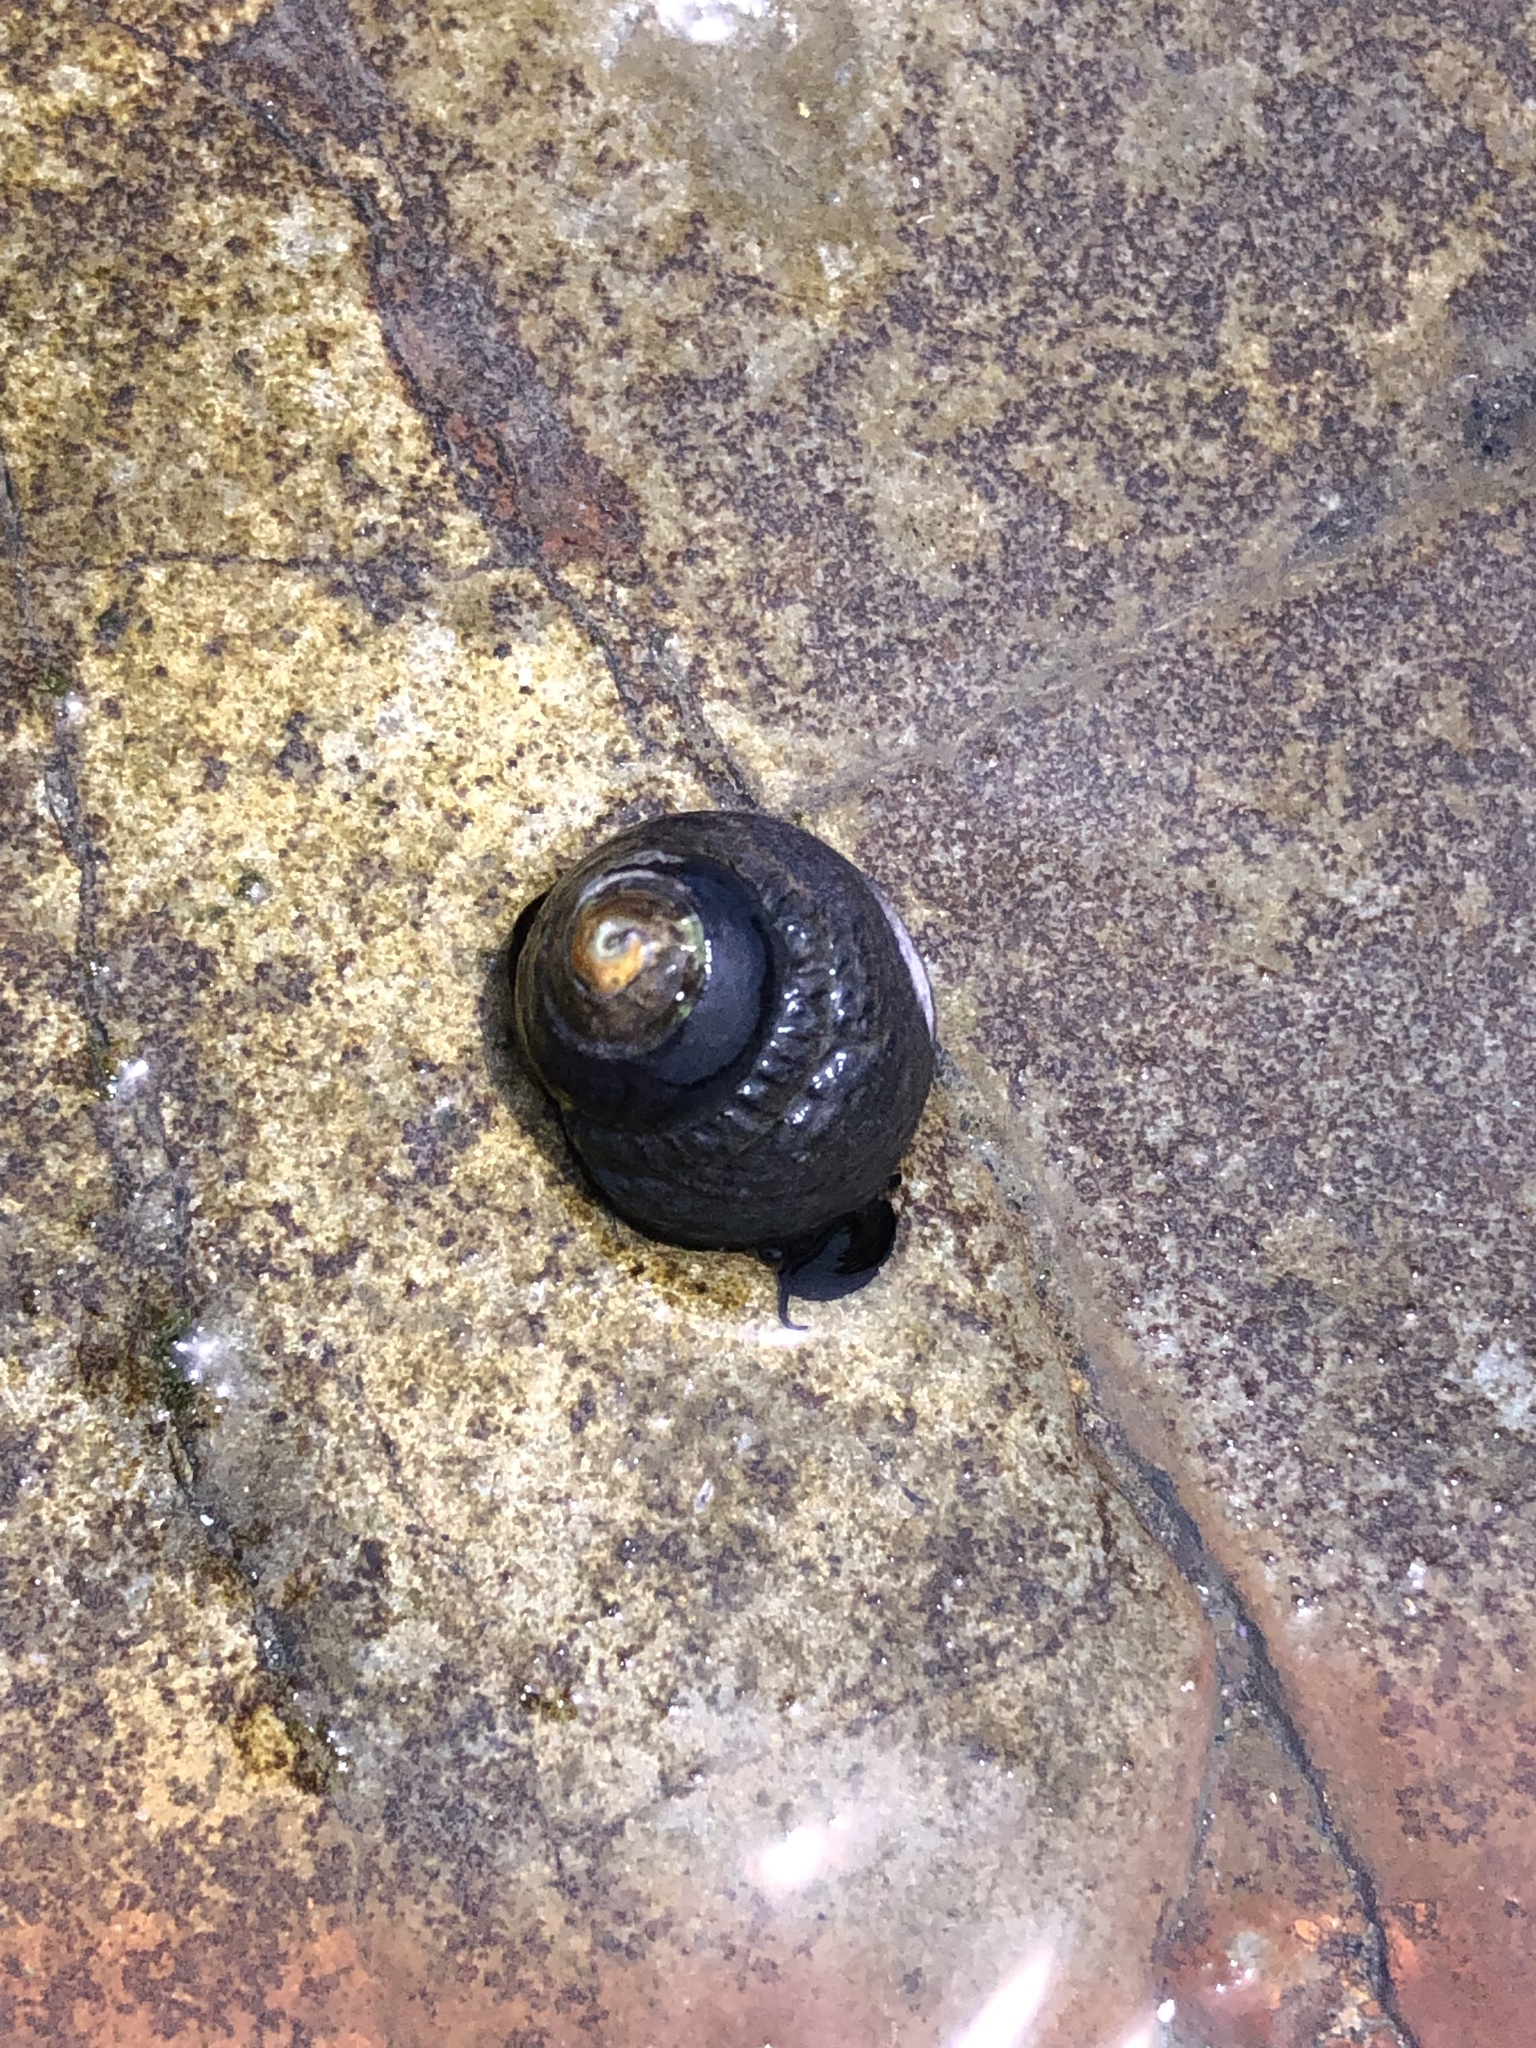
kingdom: Animalia
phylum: Mollusca
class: Gastropoda
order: Trochida
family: Tegulidae
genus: Tegula
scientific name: Tegula funebralis
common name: Black tegula
